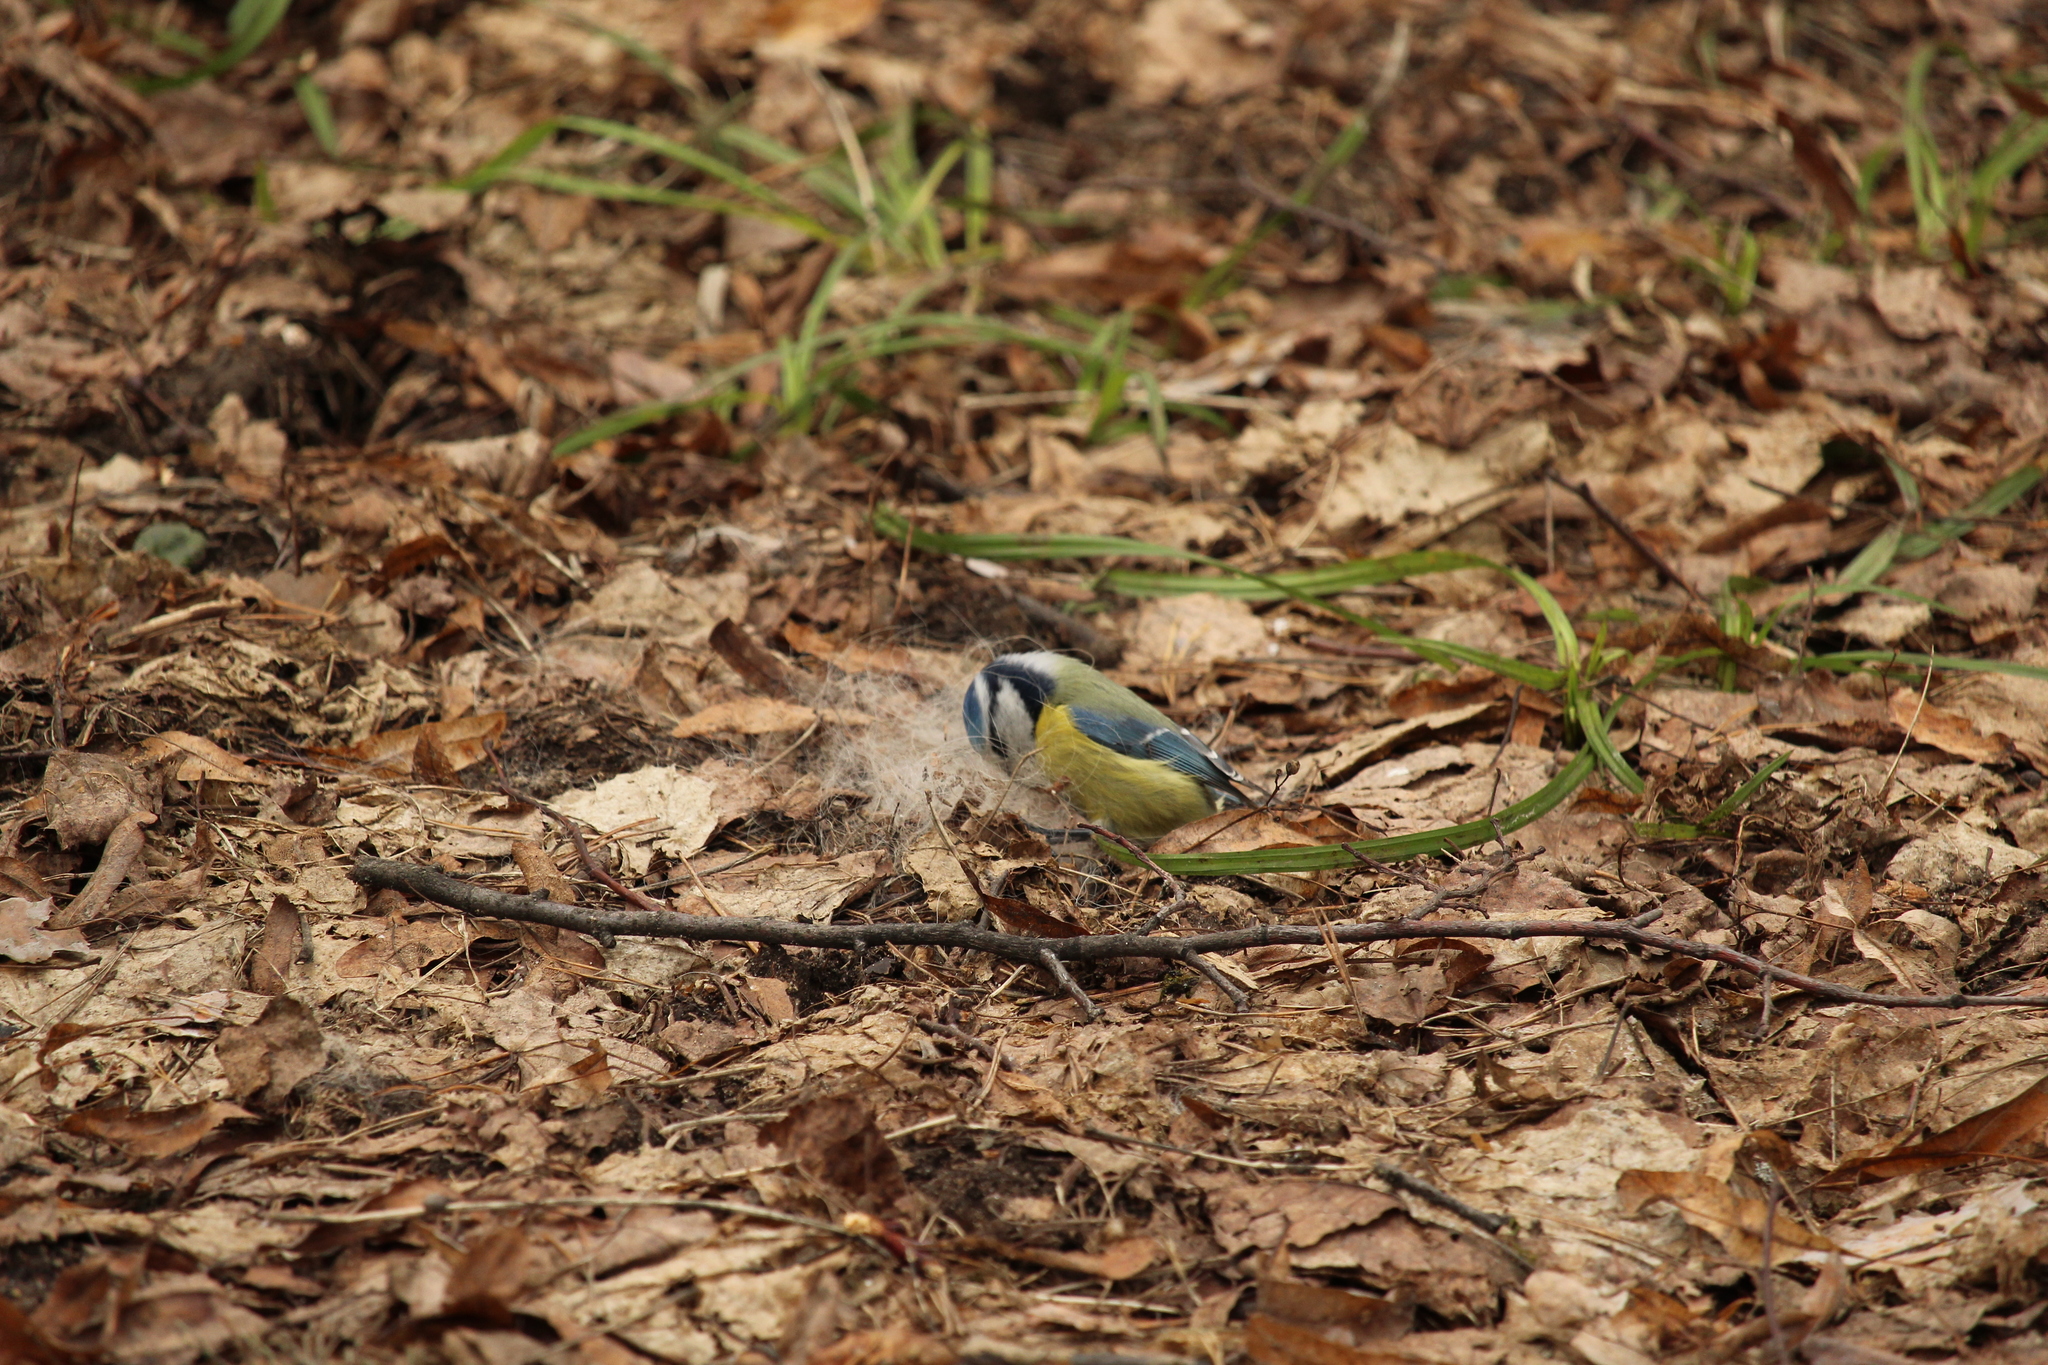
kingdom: Animalia
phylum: Chordata
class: Aves
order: Passeriformes
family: Paridae
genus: Cyanistes
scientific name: Cyanistes caeruleus
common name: Eurasian blue tit
